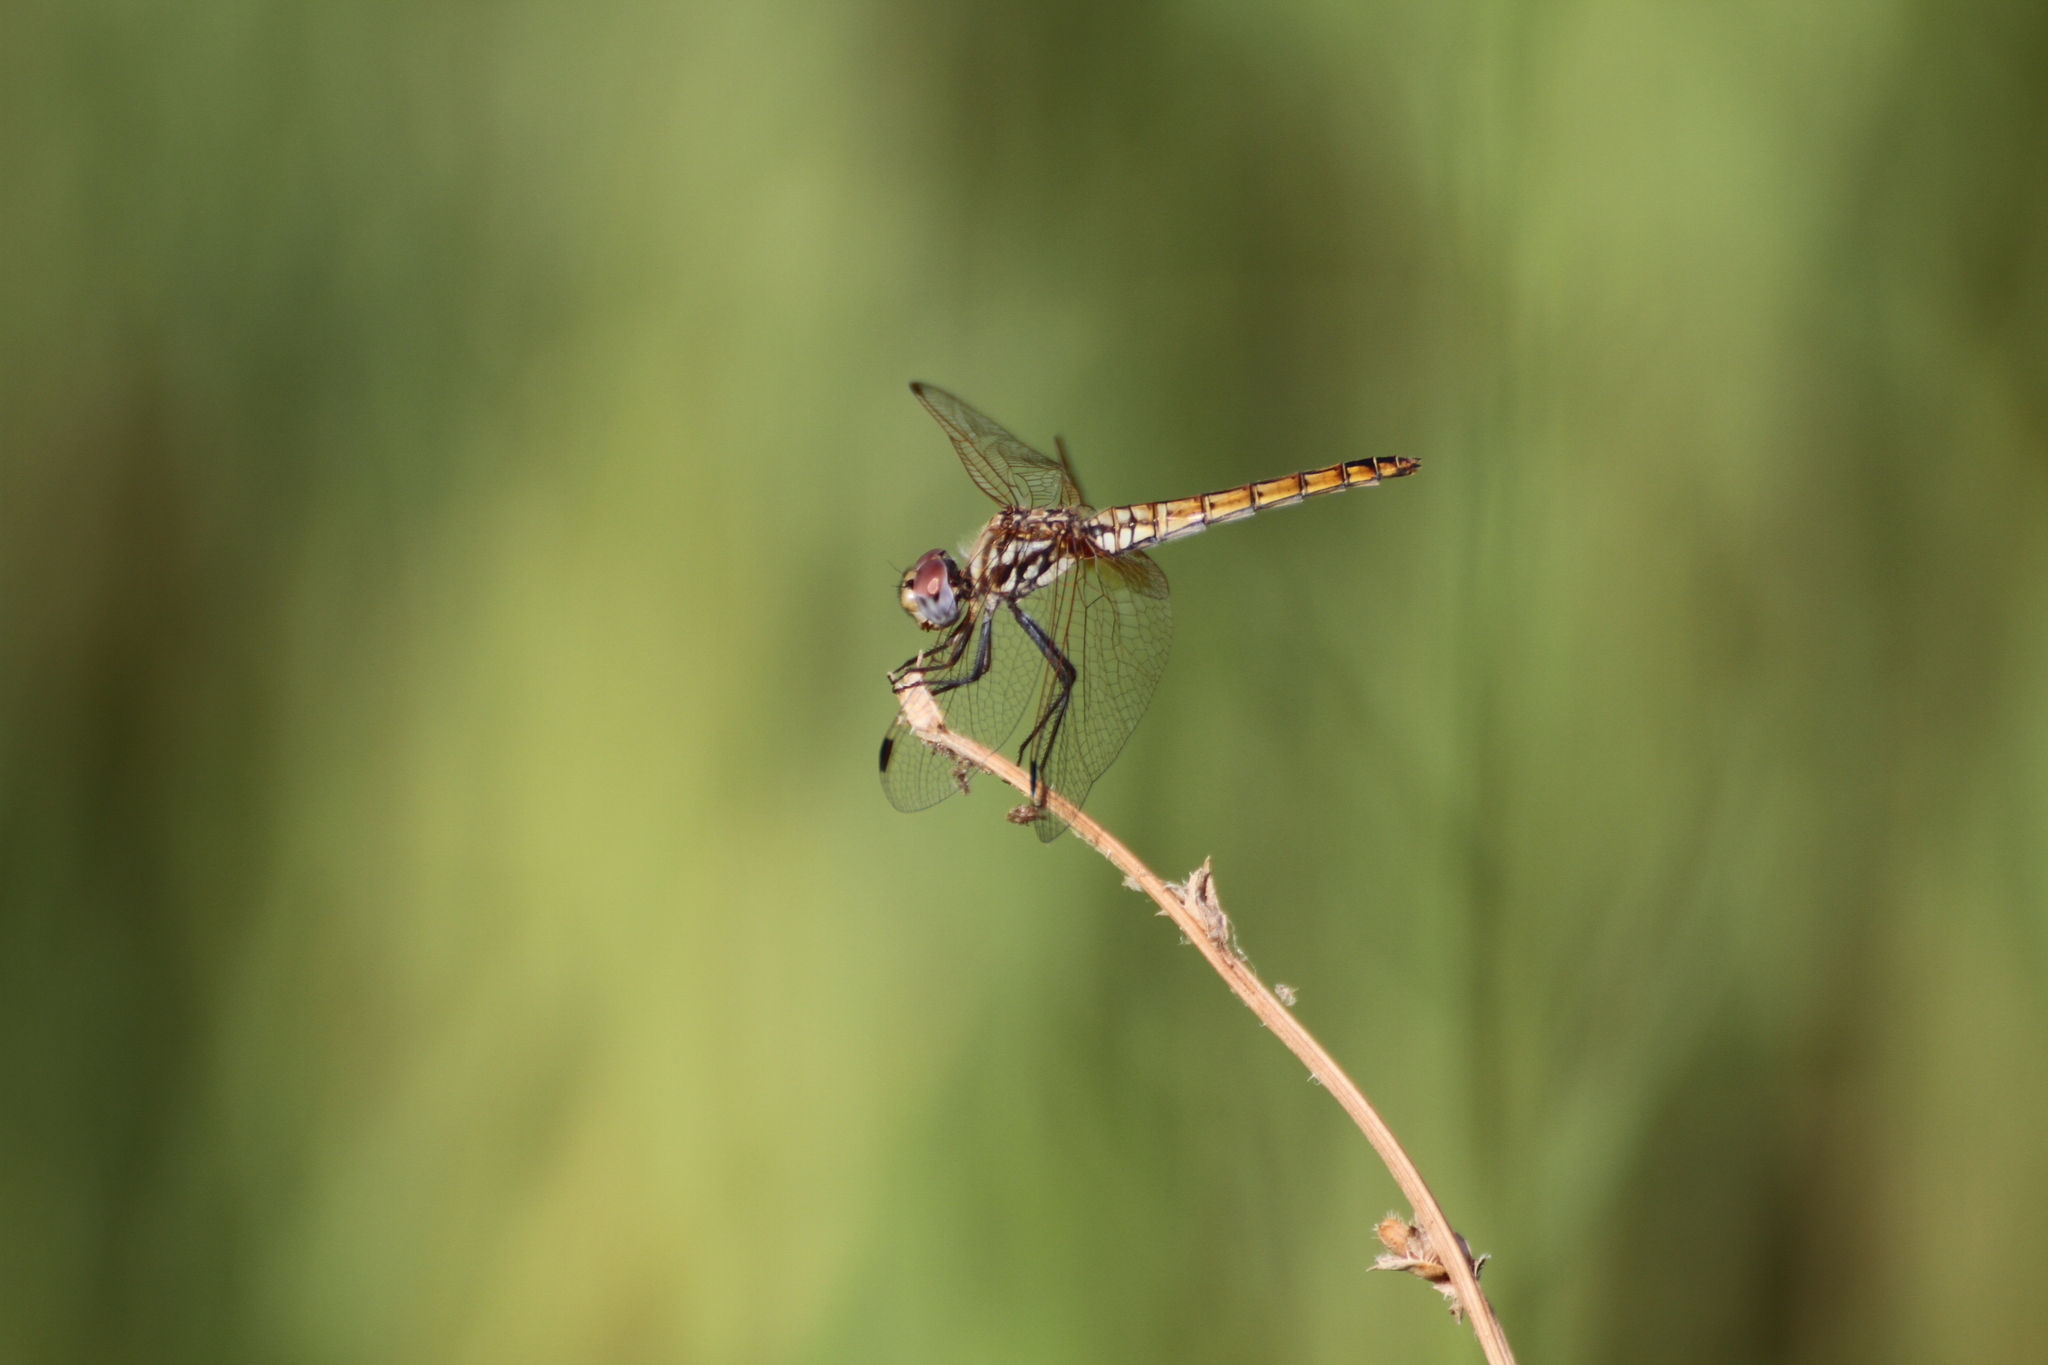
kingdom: Animalia
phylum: Arthropoda
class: Insecta
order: Odonata
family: Libellulidae
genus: Trithemis
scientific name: Trithemis annulata
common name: Violet dropwing
